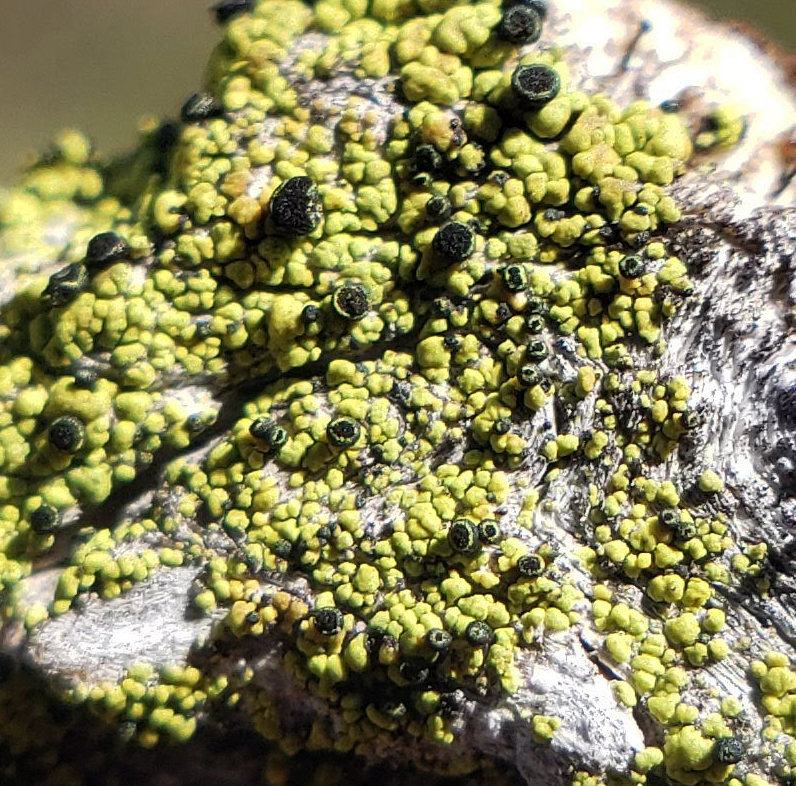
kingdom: Fungi
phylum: Ascomycota
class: Lecanoromycetes
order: Caliciales
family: Caliciaceae
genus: Calicium
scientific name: Calicium lucidum
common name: Yellow soot lichen
